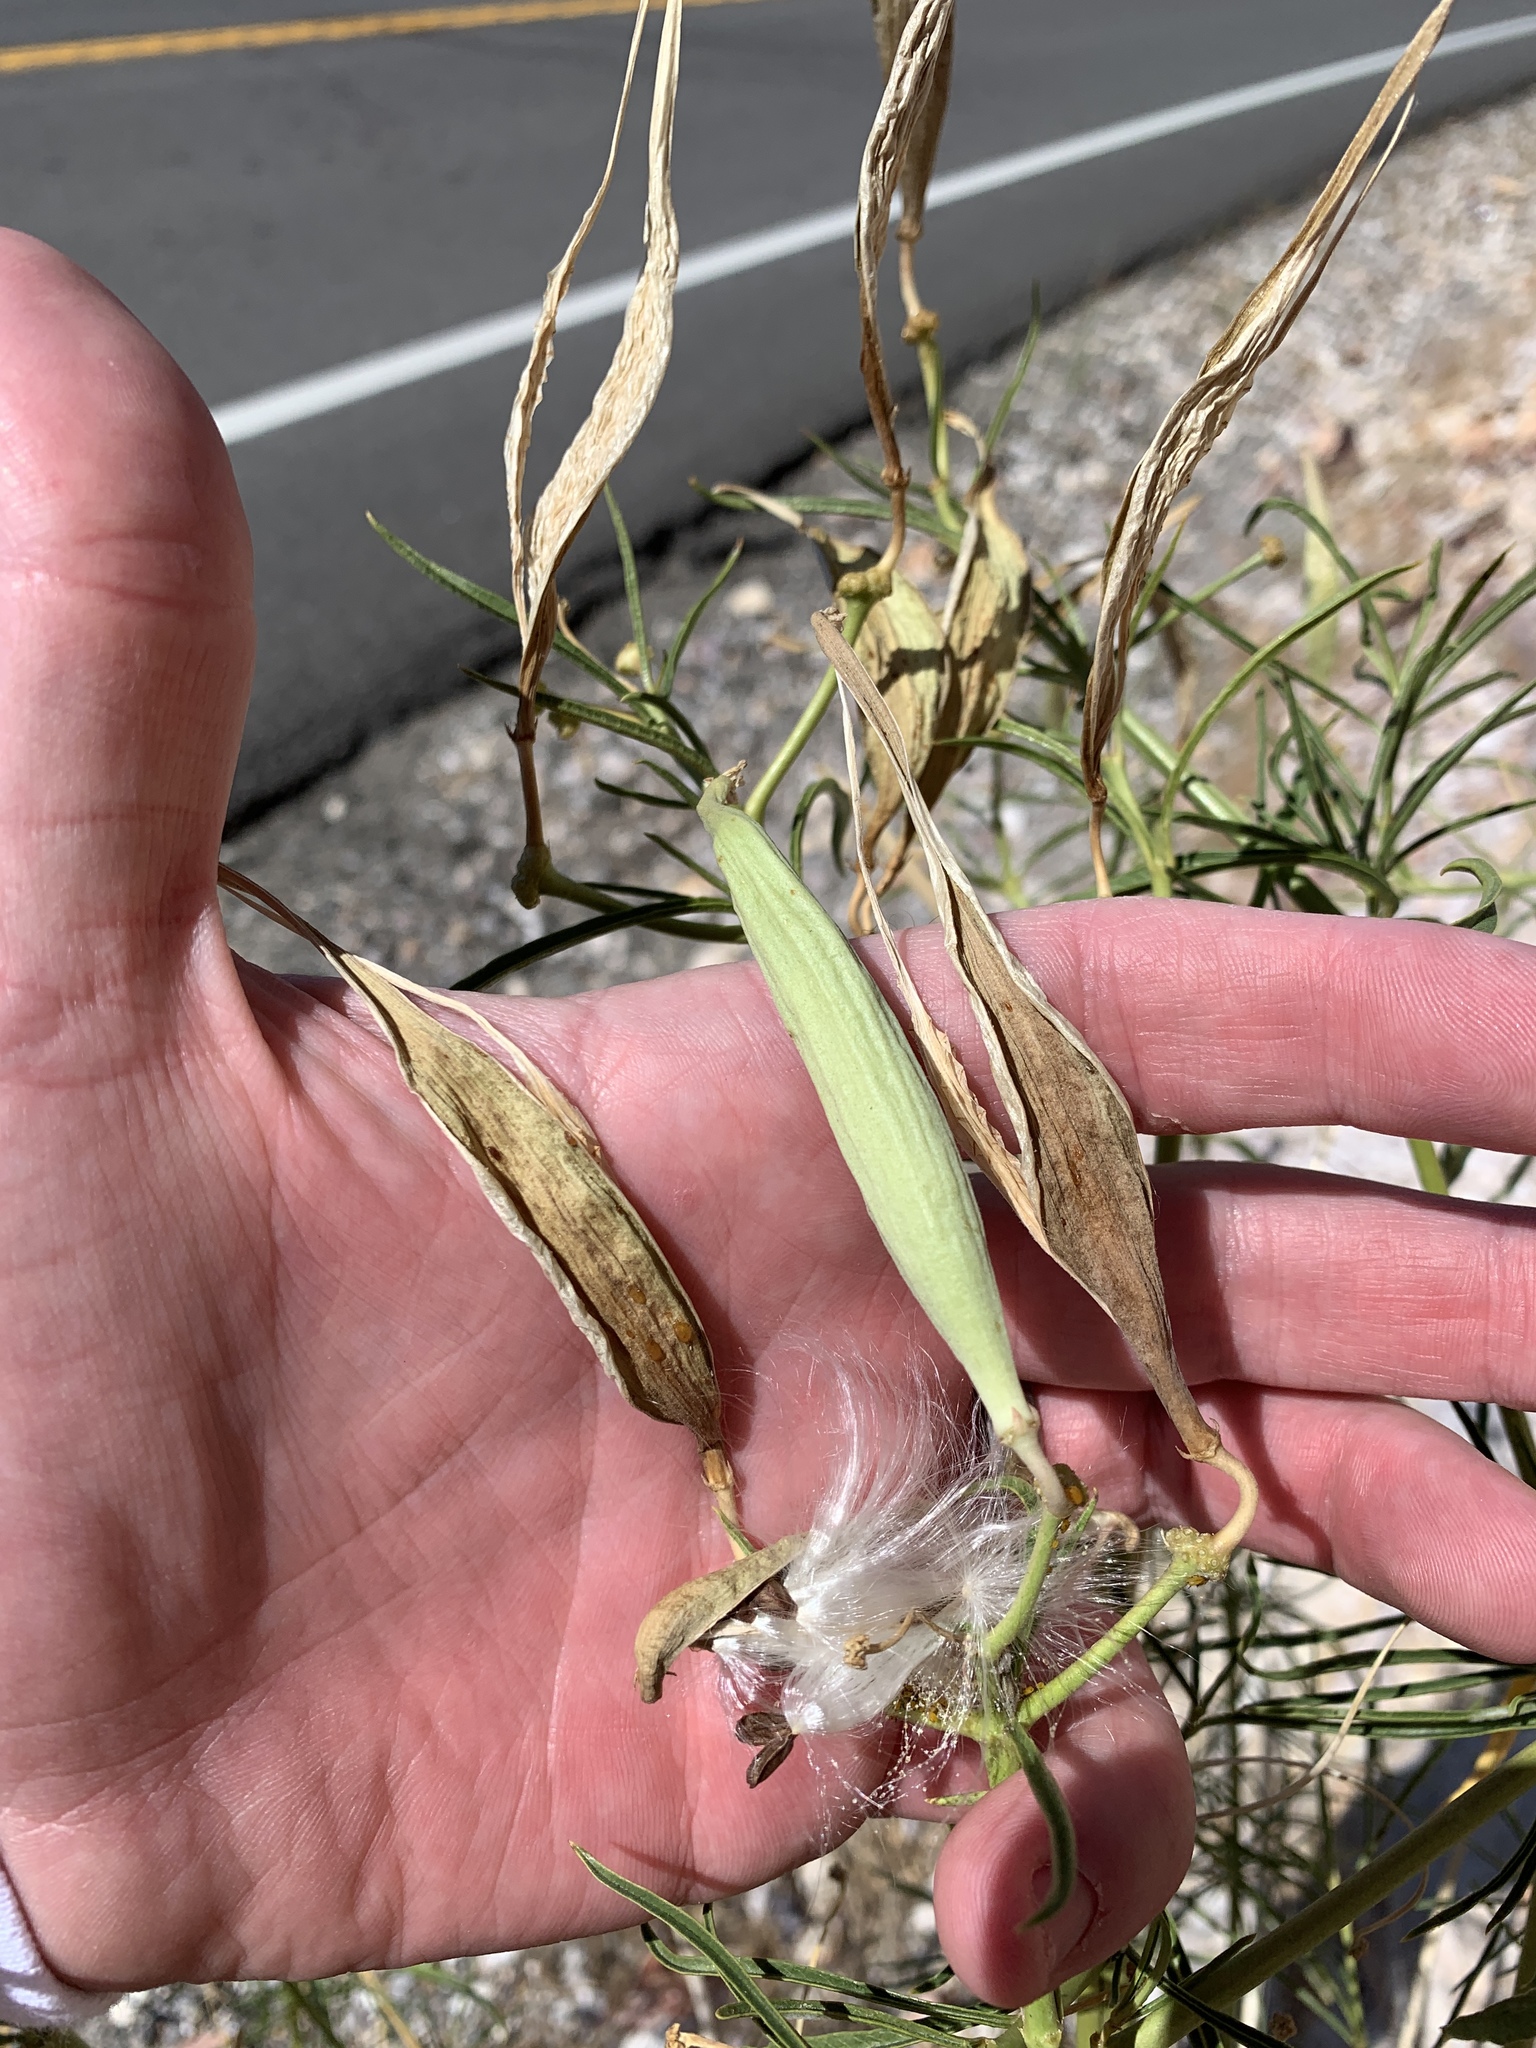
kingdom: Plantae
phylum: Tracheophyta
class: Magnoliopsida
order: Gentianales
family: Apocynaceae
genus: Asclepias
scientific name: Asclepias fascicularis
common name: Mexican milkweed
